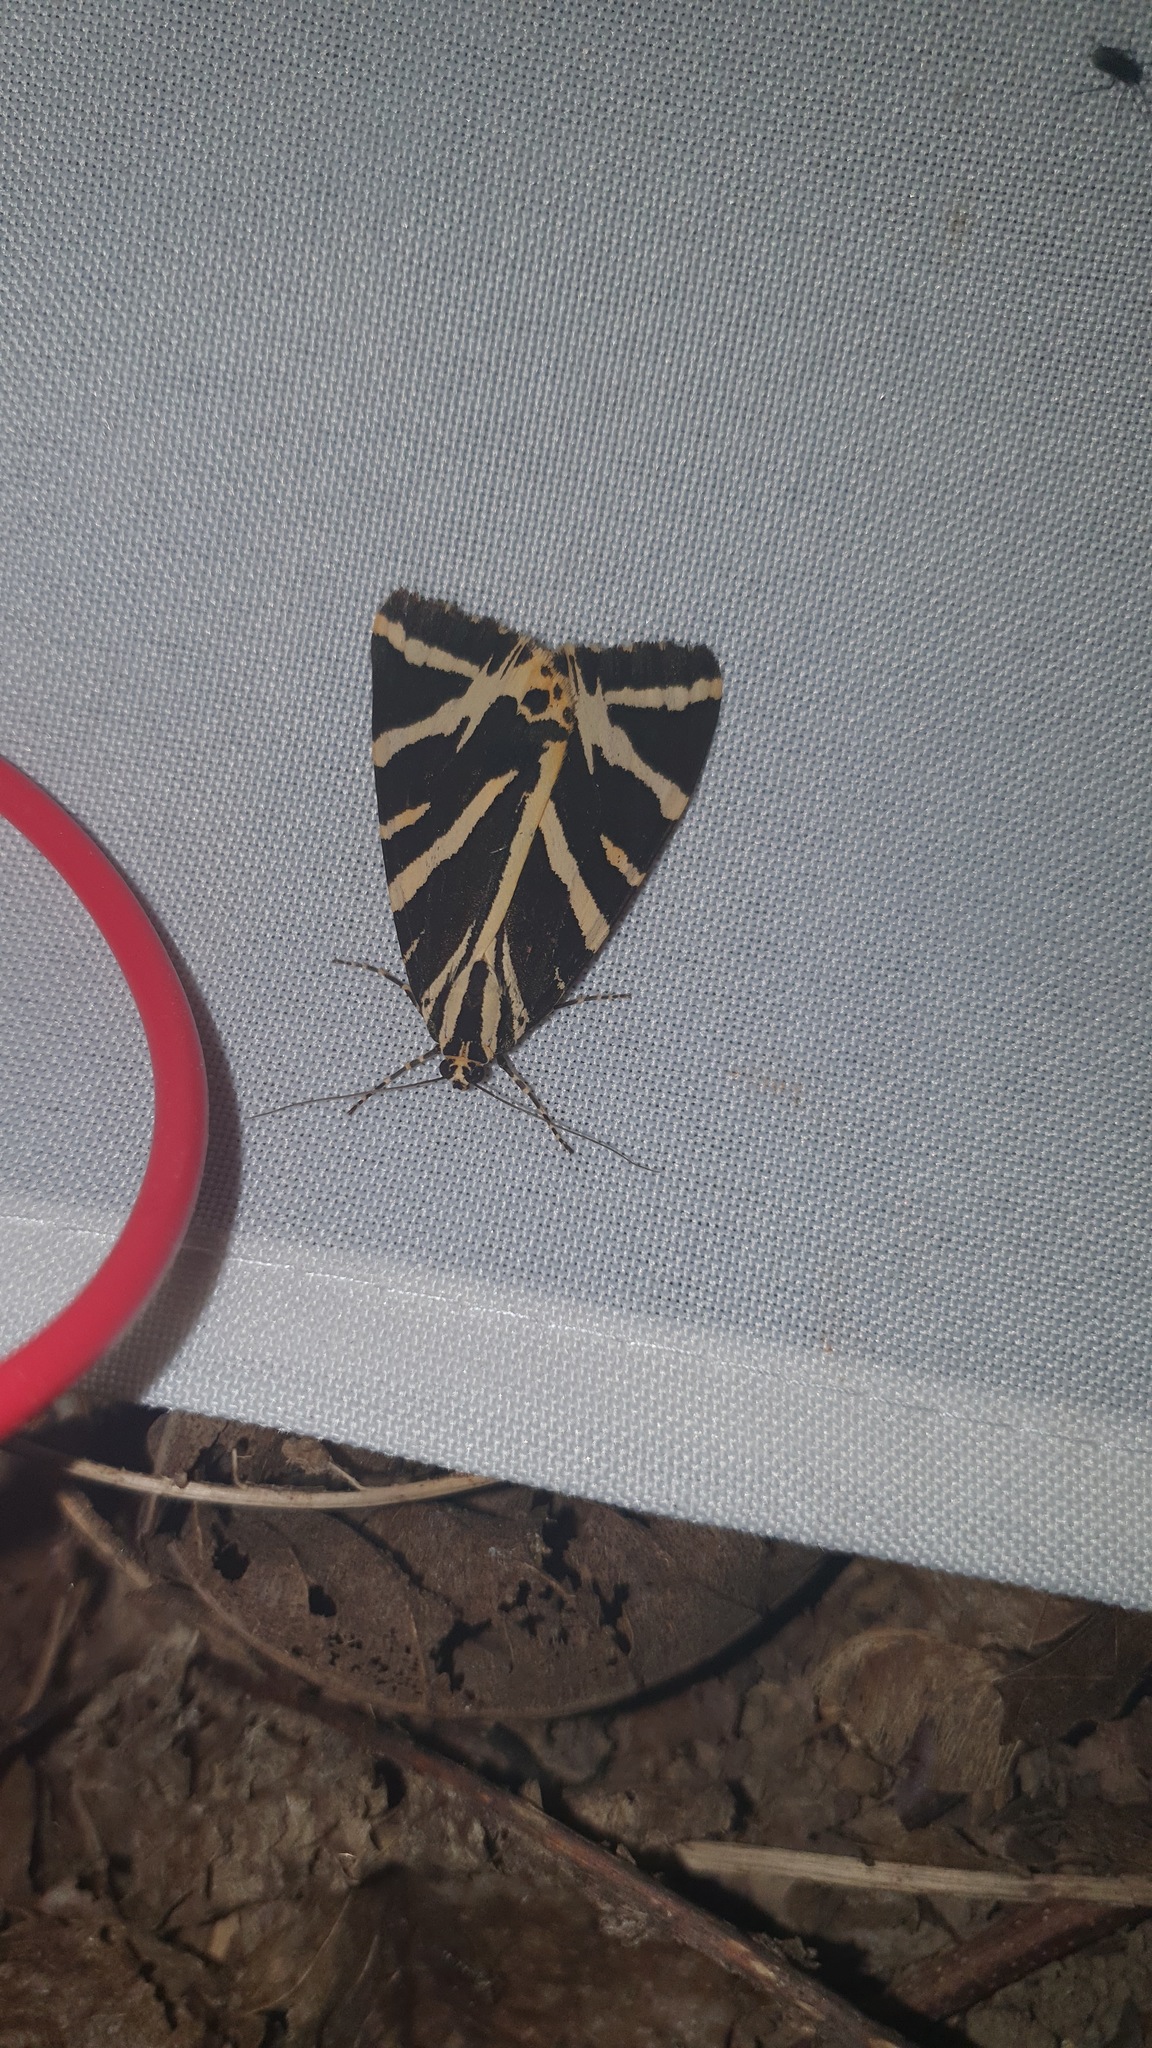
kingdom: Animalia
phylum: Arthropoda
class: Insecta
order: Lepidoptera
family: Erebidae
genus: Euplagia
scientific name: Euplagia quadripunctaria
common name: Jersey tiger
